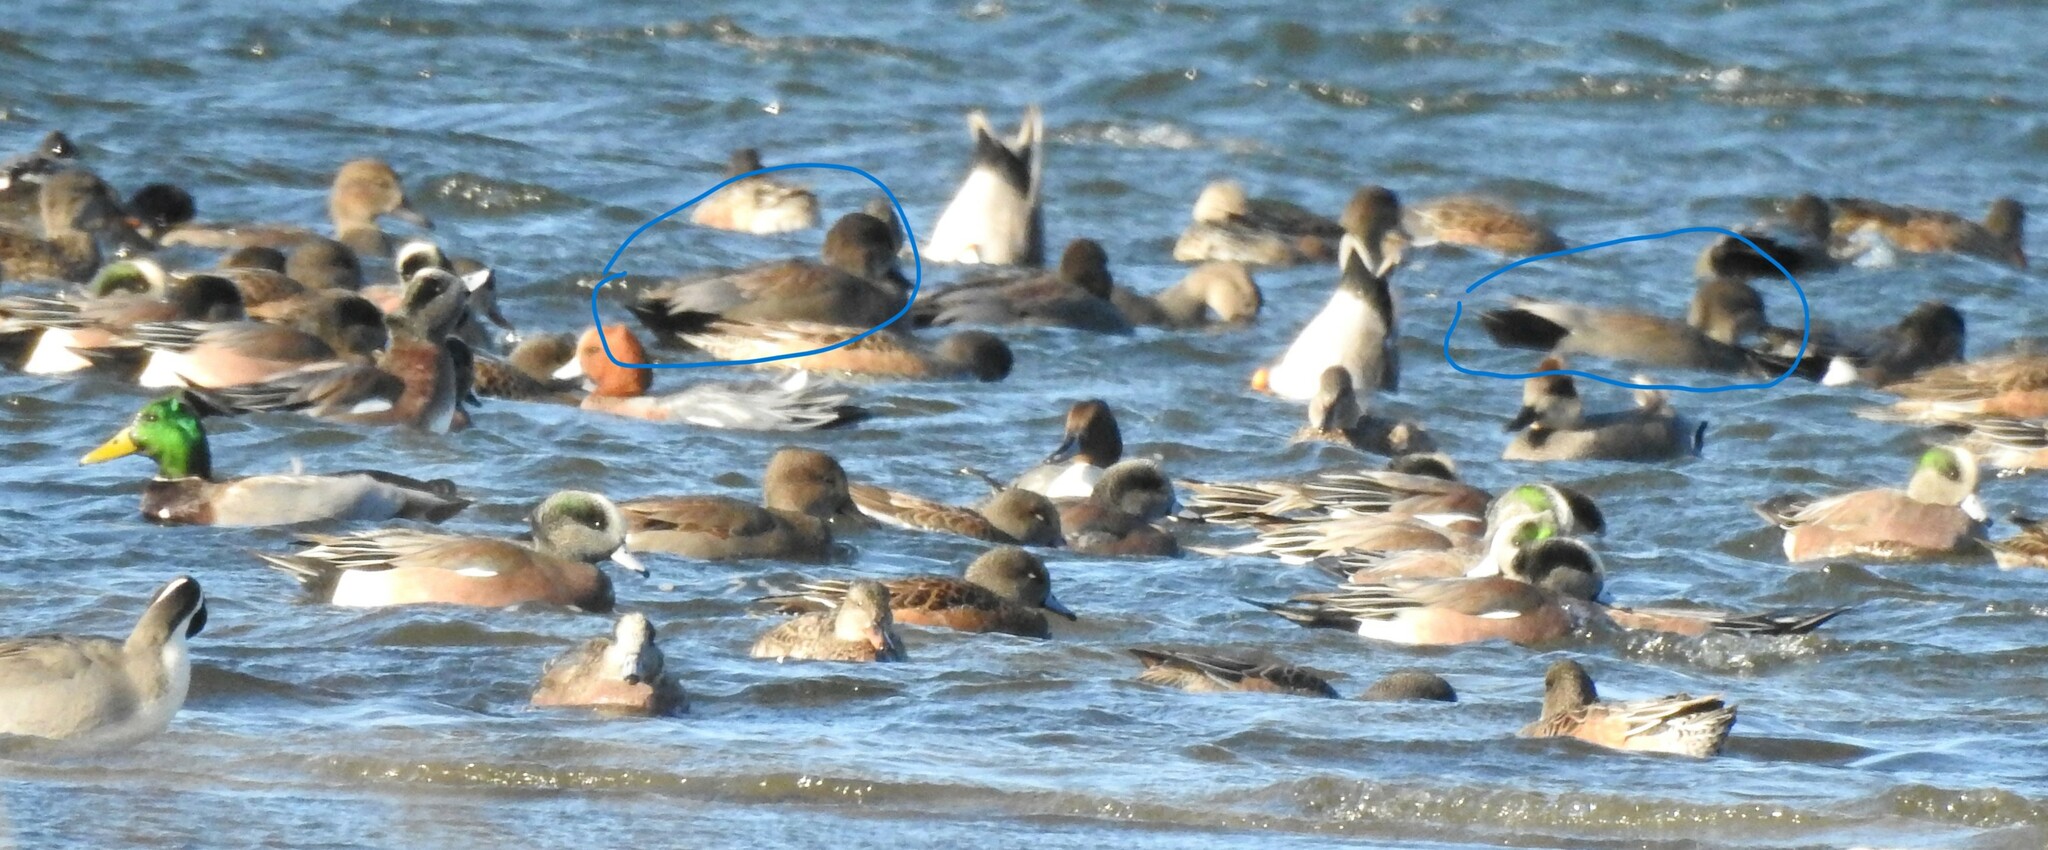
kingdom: Animalia
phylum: Chordata
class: Aves
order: Anseriformes
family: Anatidae
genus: Mareca
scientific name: Mareca strepera
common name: Gadwall
